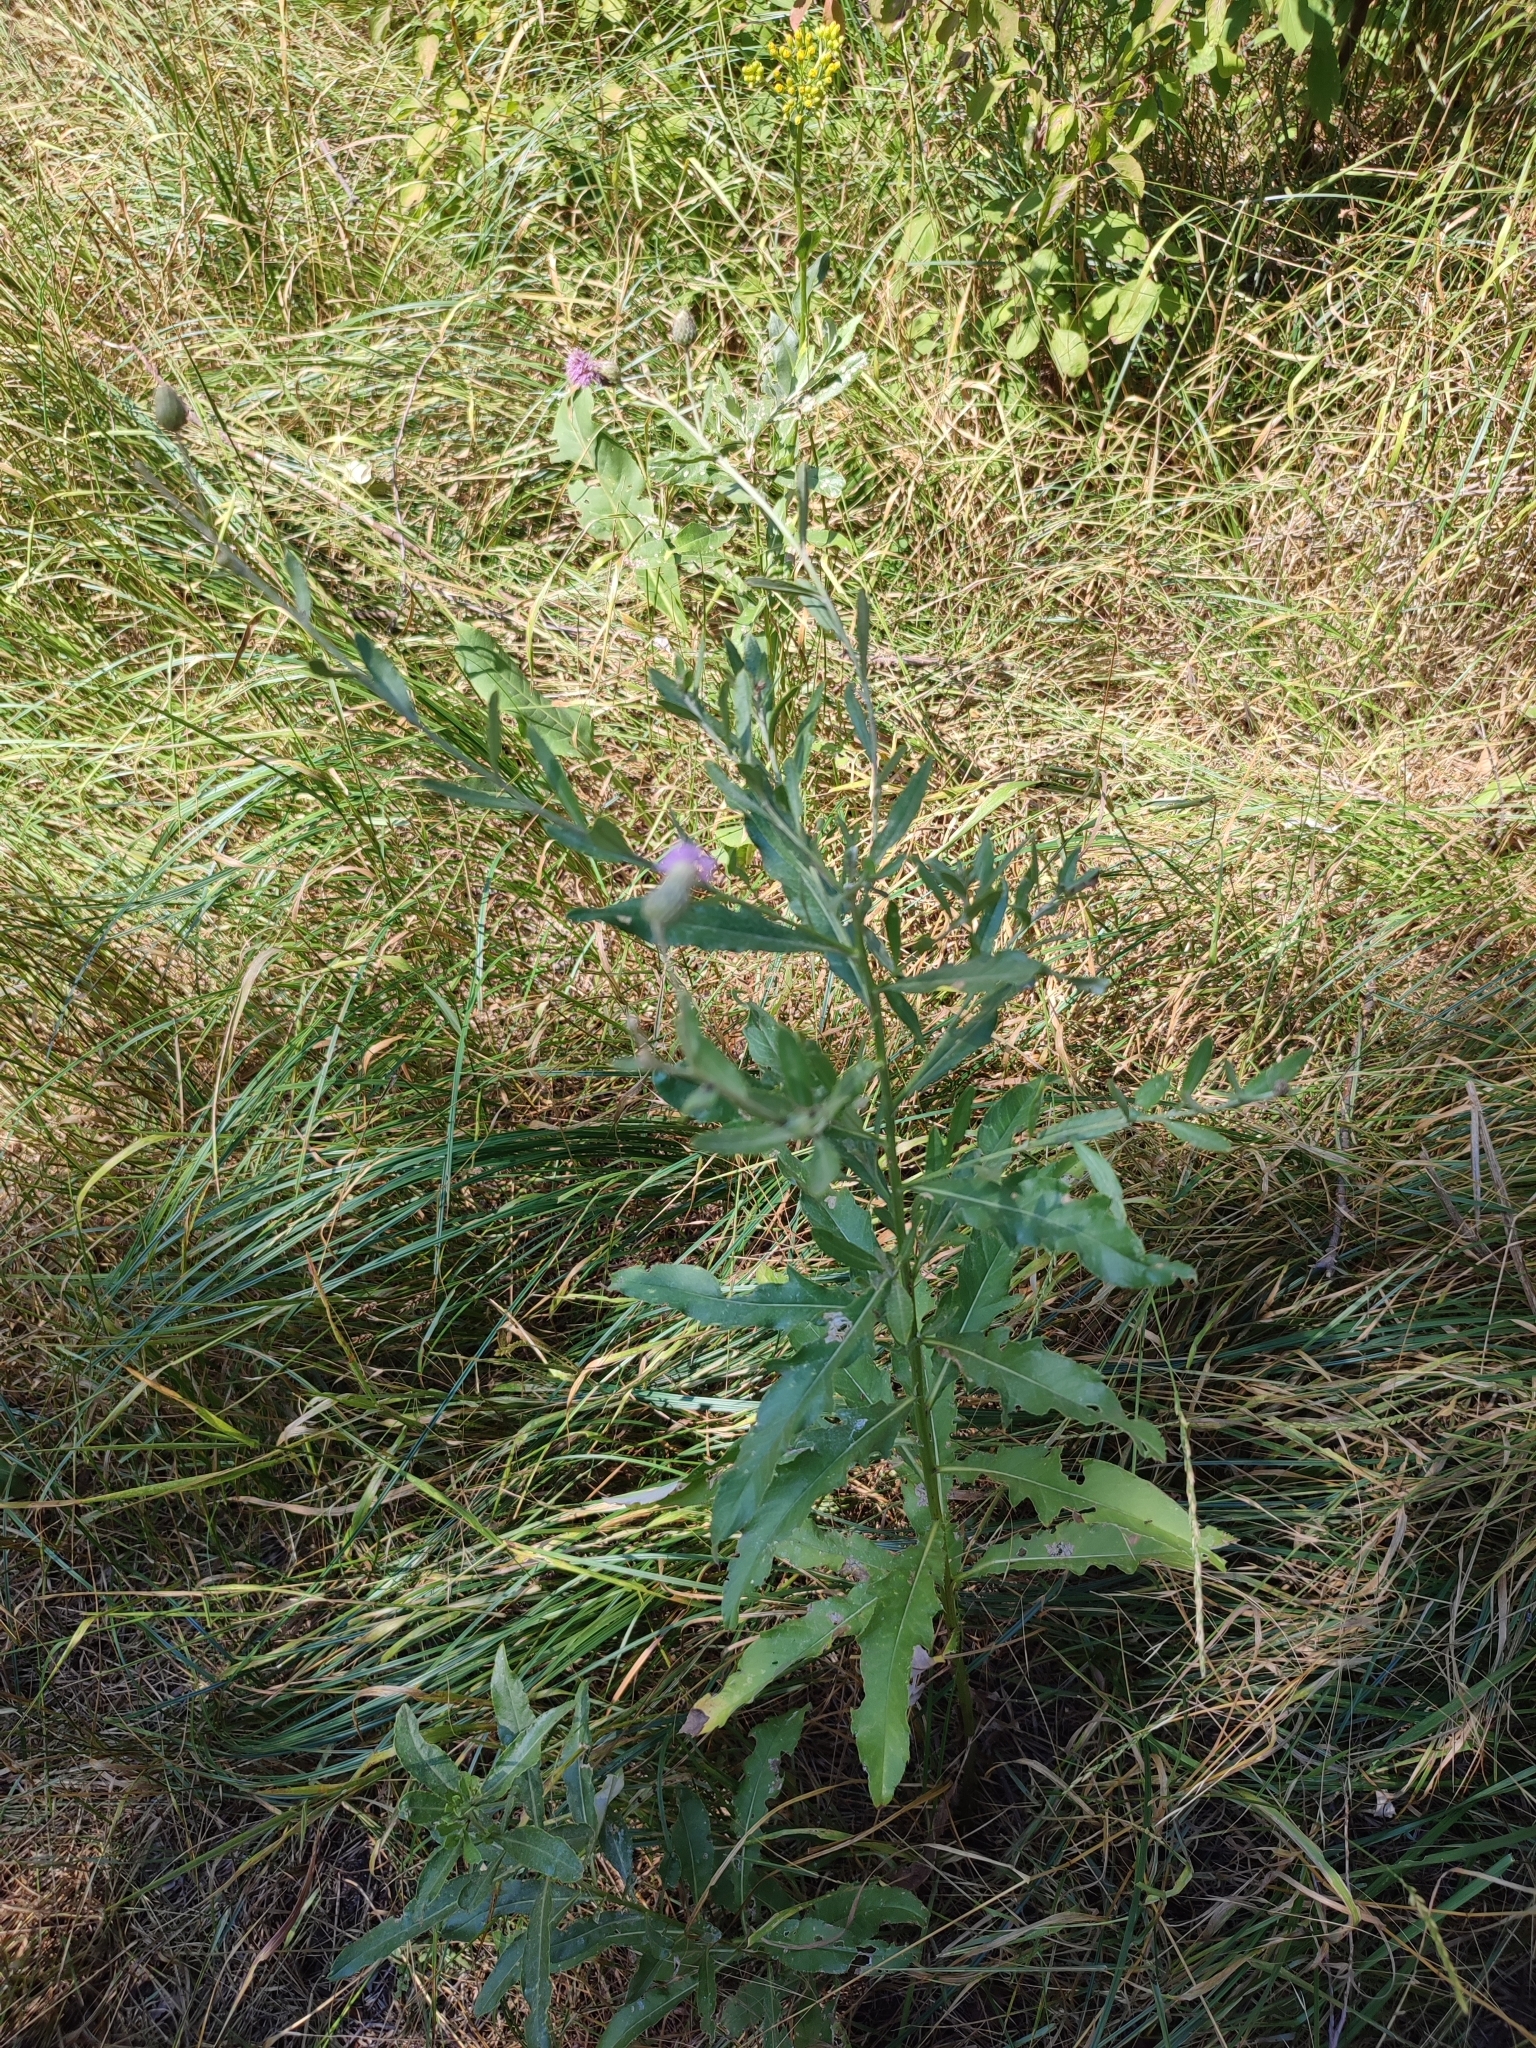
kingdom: Plantae
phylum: Tracheophyta
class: Magnoliopsida
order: Asterales
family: Asteraceae
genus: Cirsium
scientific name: Cirsium arvense
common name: Creeping thistle
